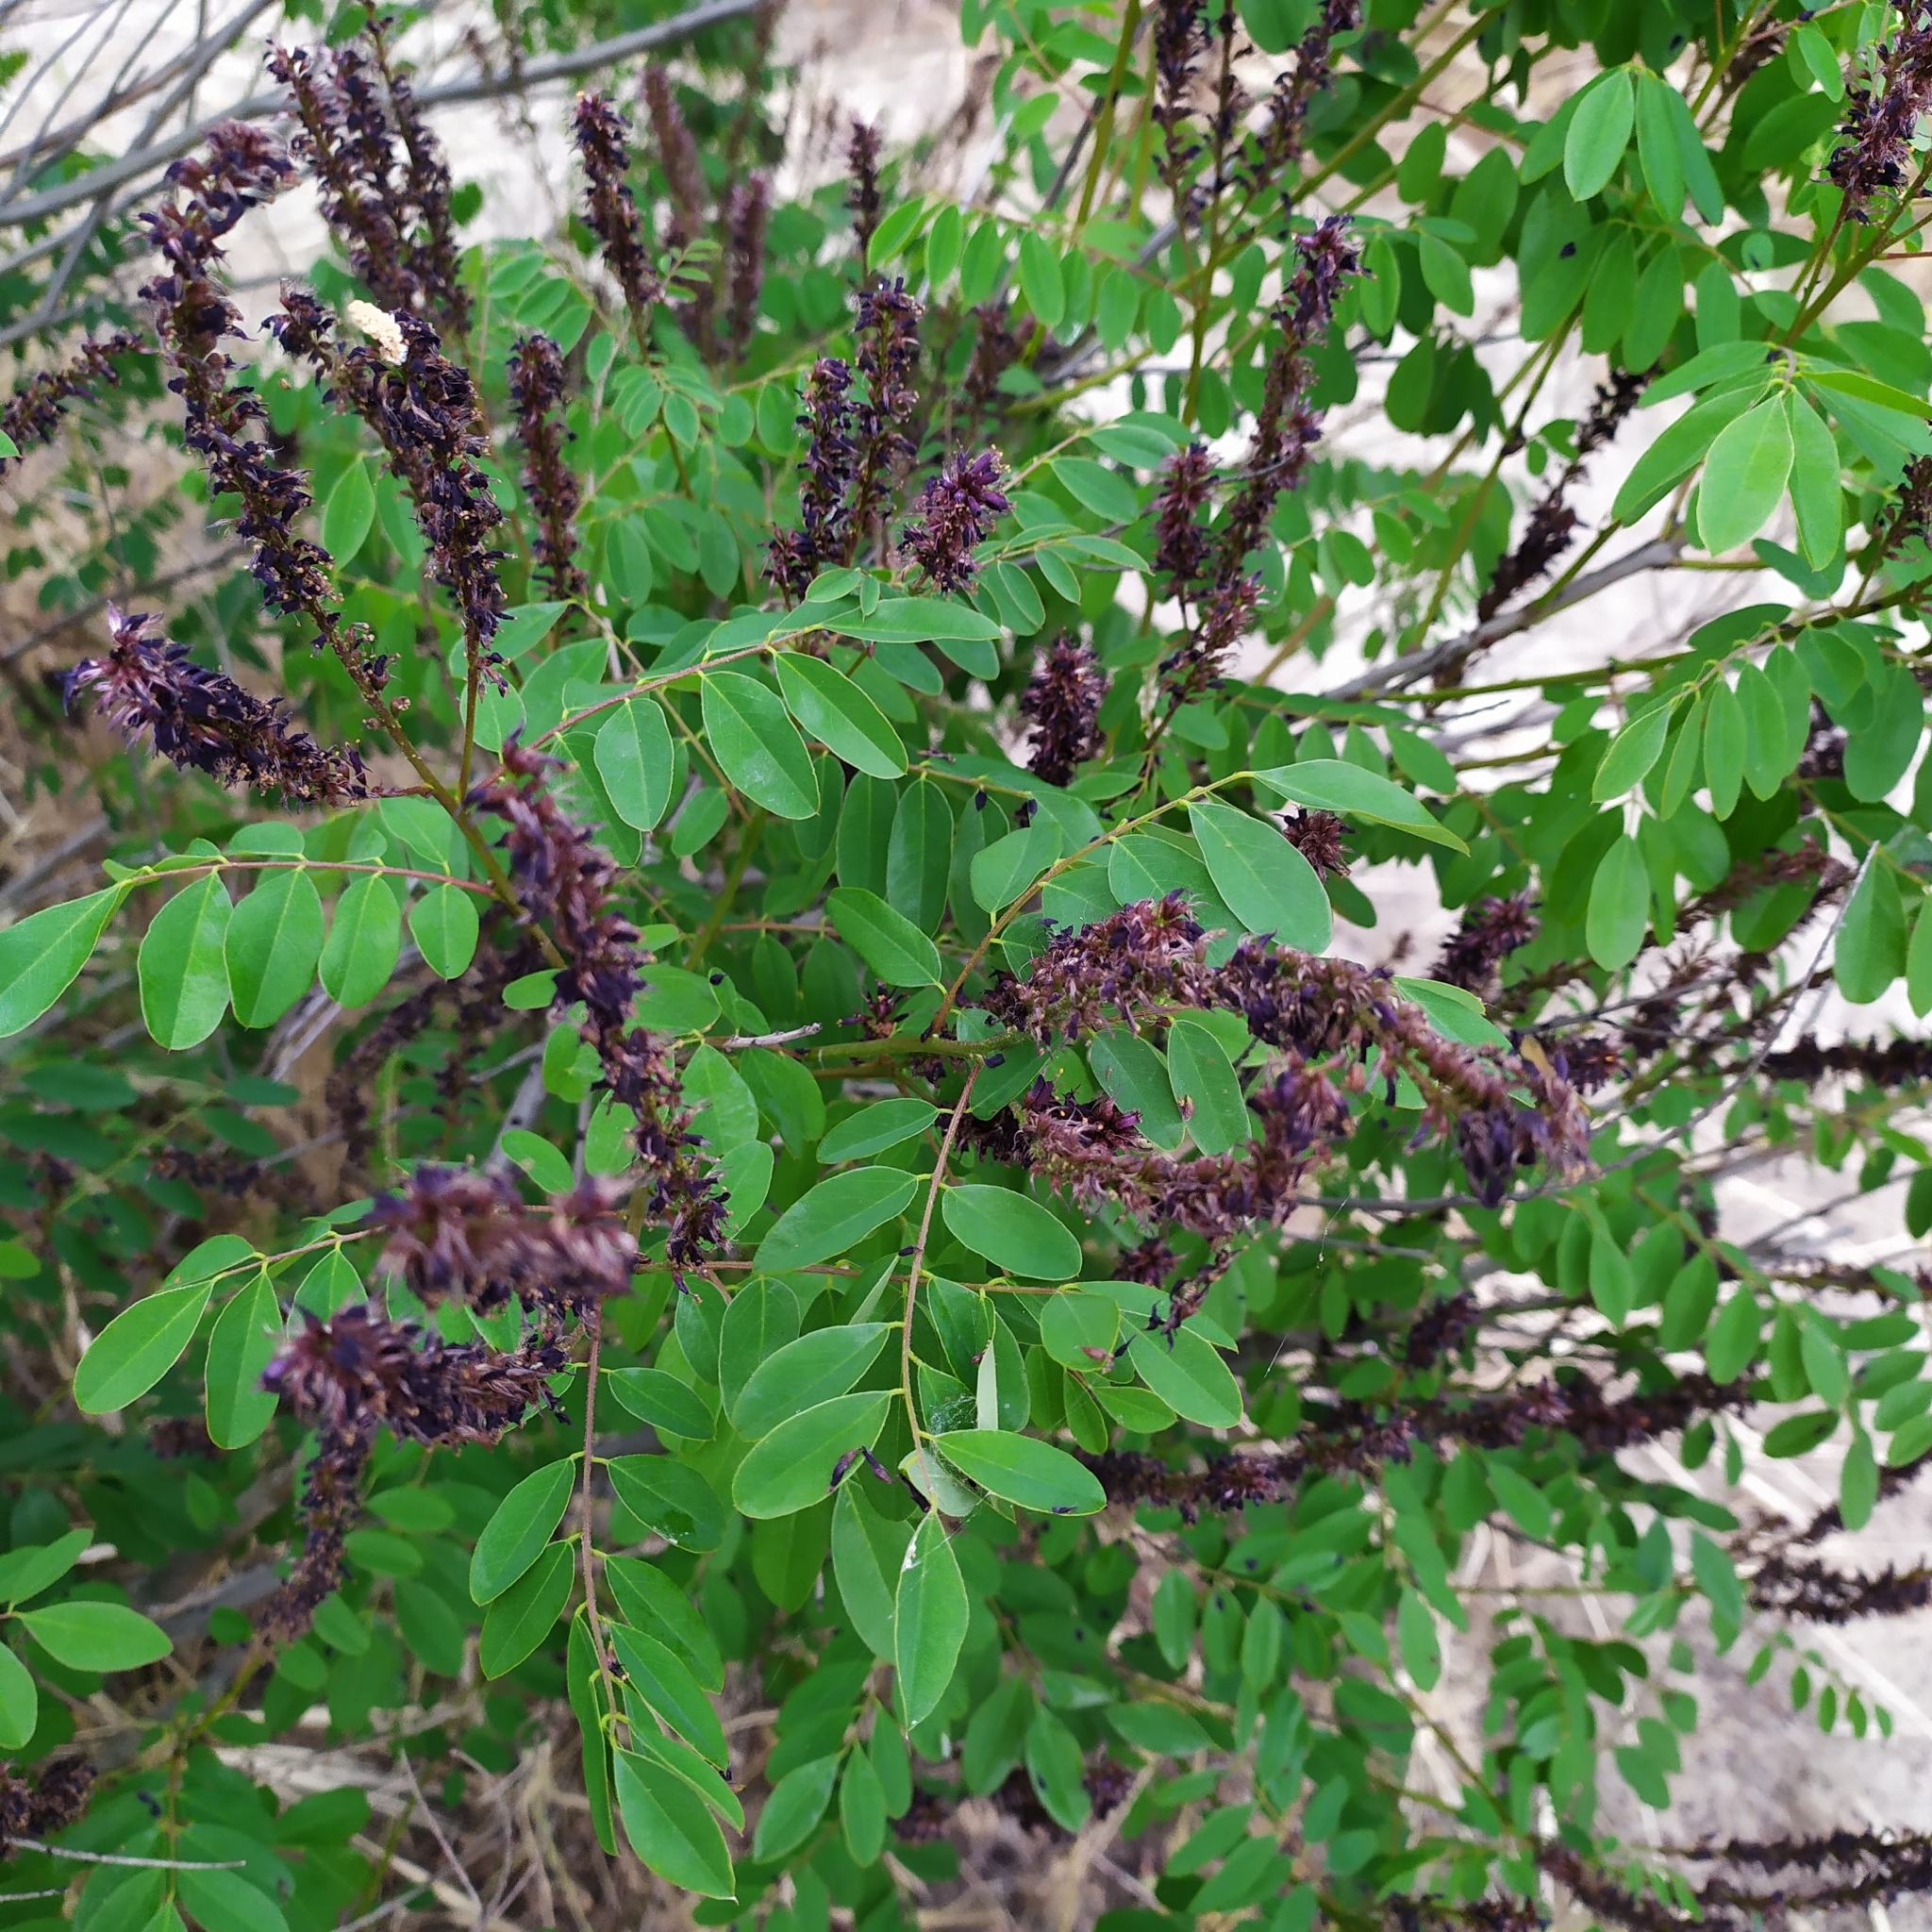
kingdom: Plantae
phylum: Tracheophyta
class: Magnoliopsida
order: Fabales
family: Fabaceae
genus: Amorpha
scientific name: Amorpha fruticosa
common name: False indigo
